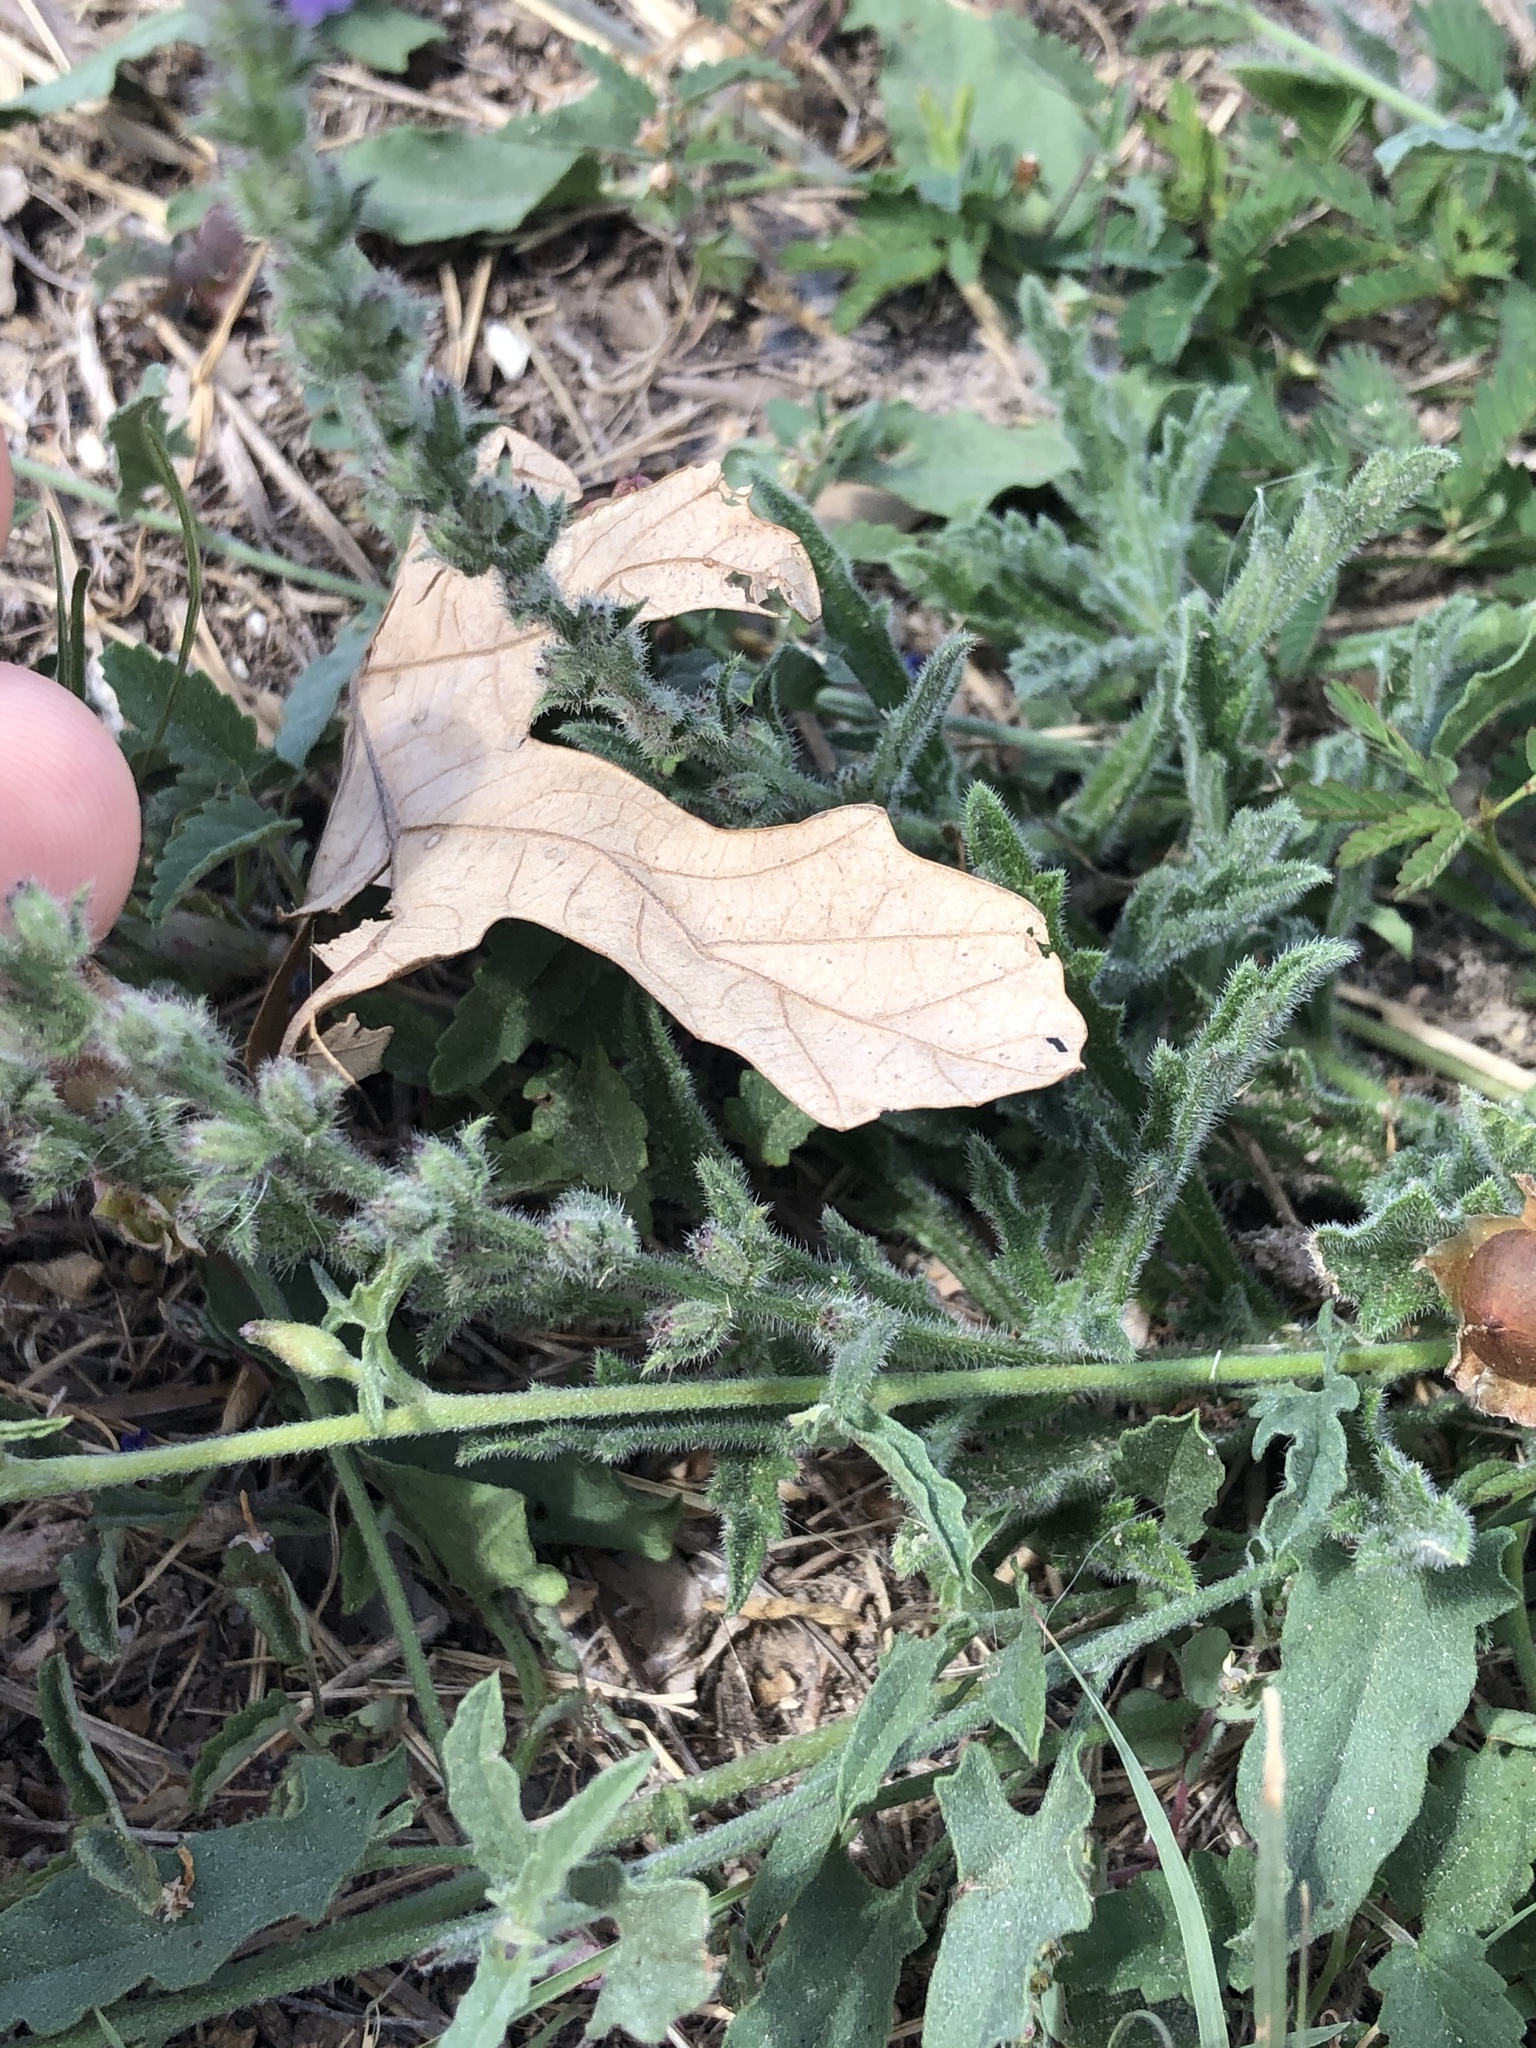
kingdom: Plantae
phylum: Tracheophyta
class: Magnoliopsida
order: Lamiales
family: Verbenaceae
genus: Verbena
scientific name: Verbena canescens
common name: Gray vervain
